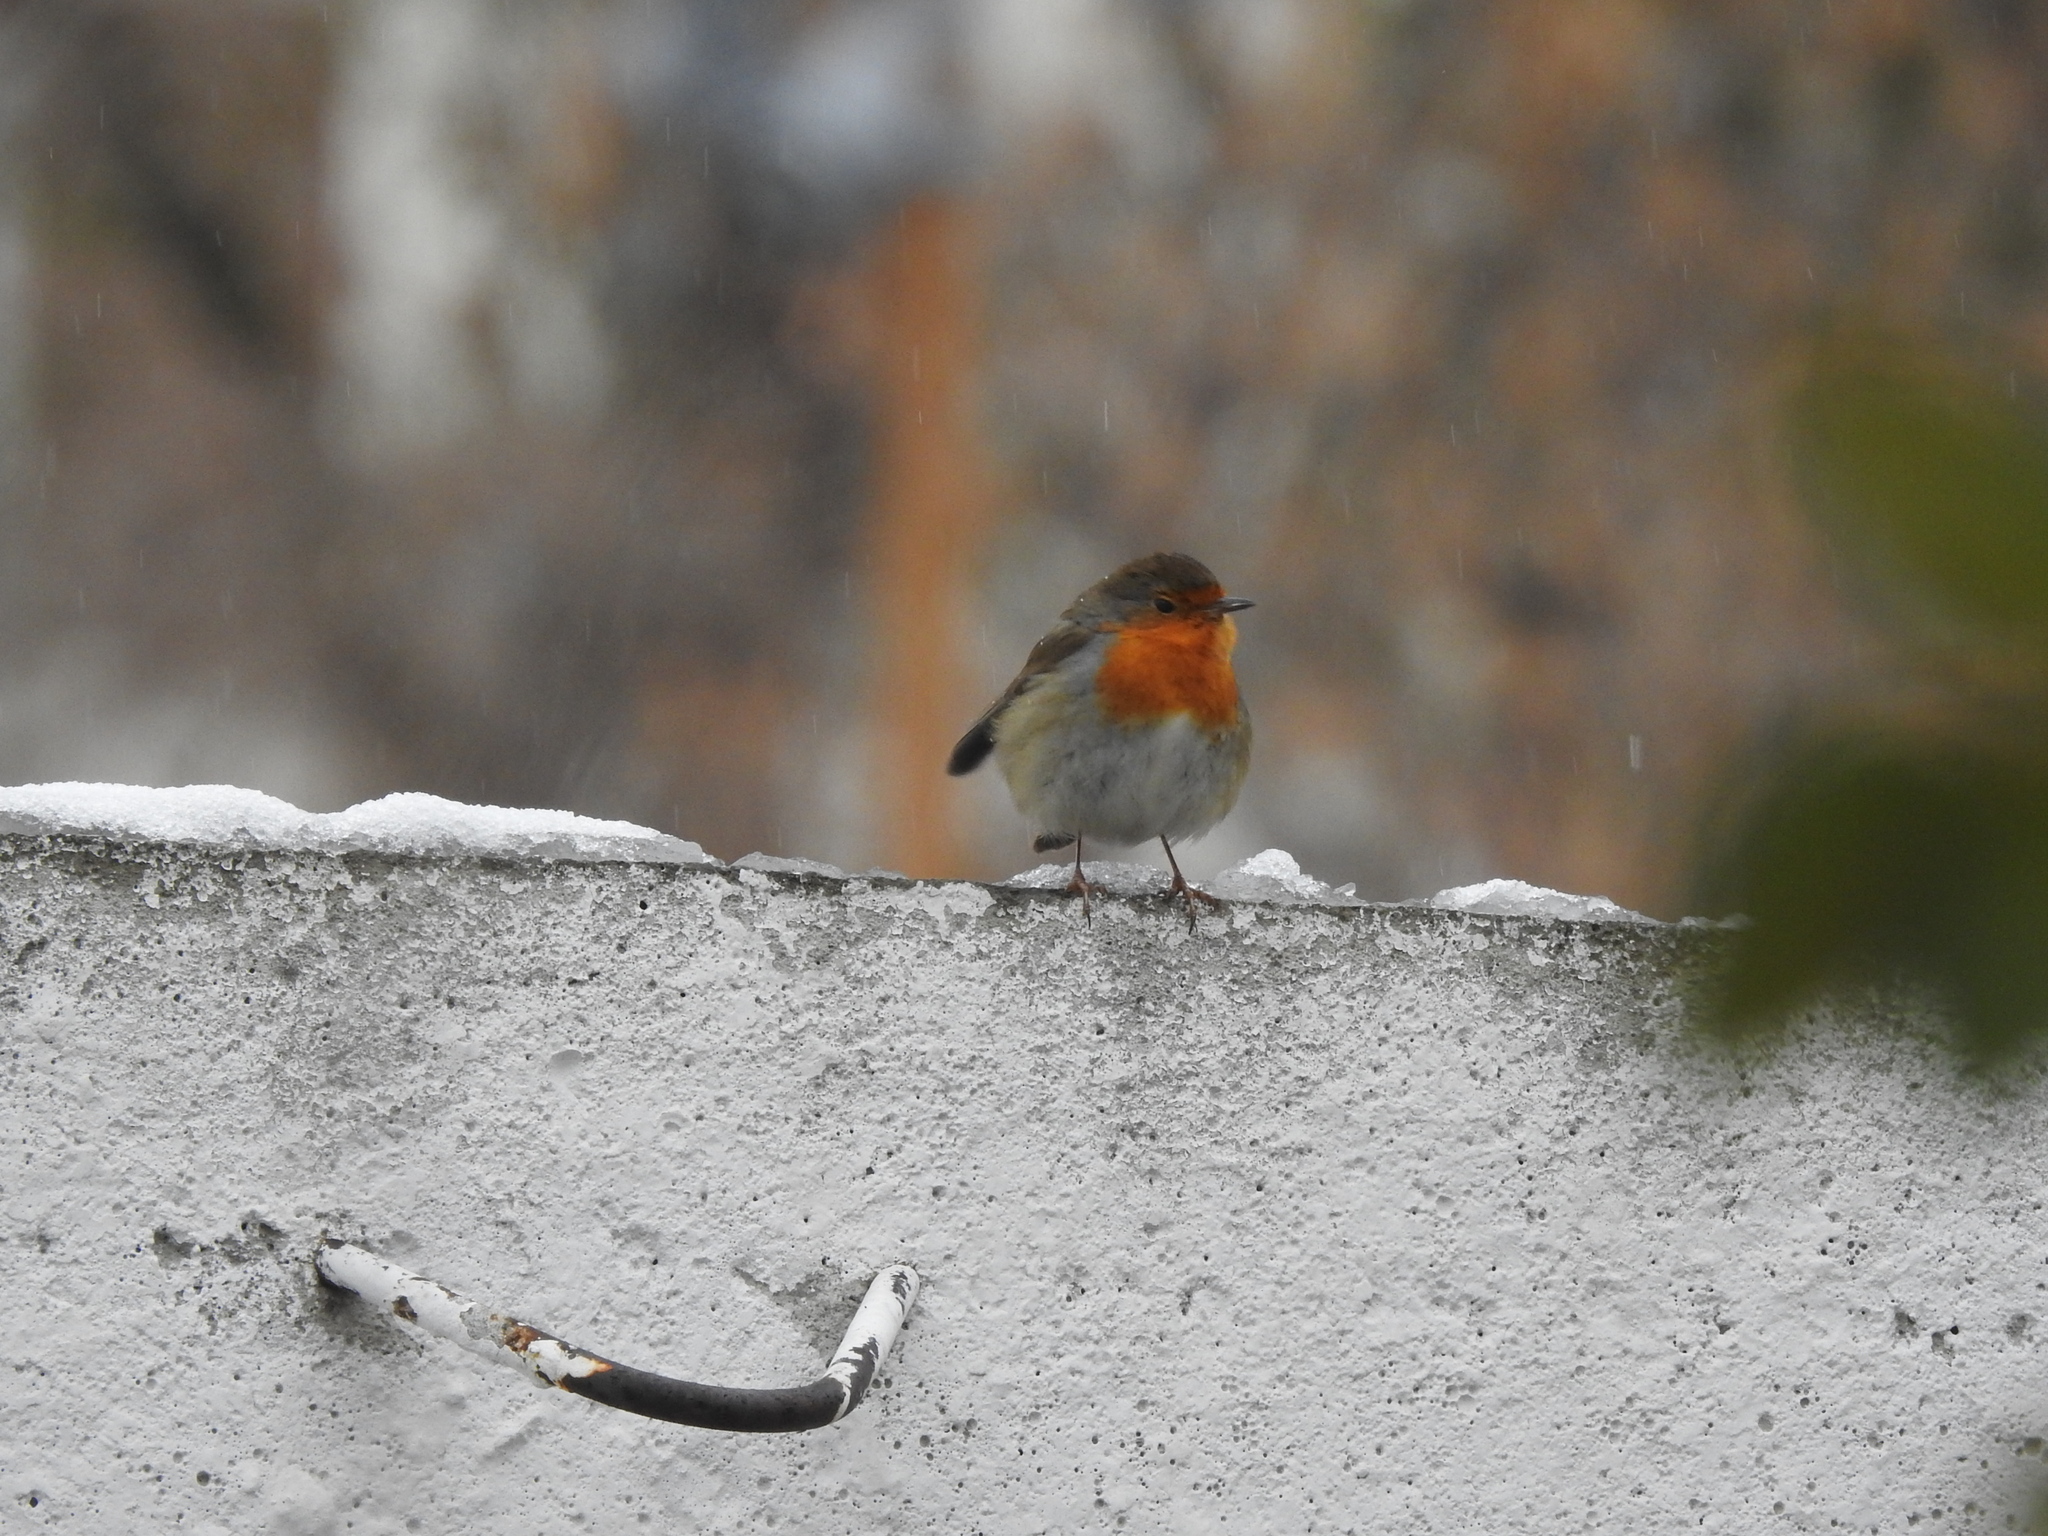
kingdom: Animalia
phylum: Chordata
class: Aves
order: Passeriformes
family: Muscicapidae
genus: Erithacus
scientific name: Erithacus rubecula
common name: European robin
